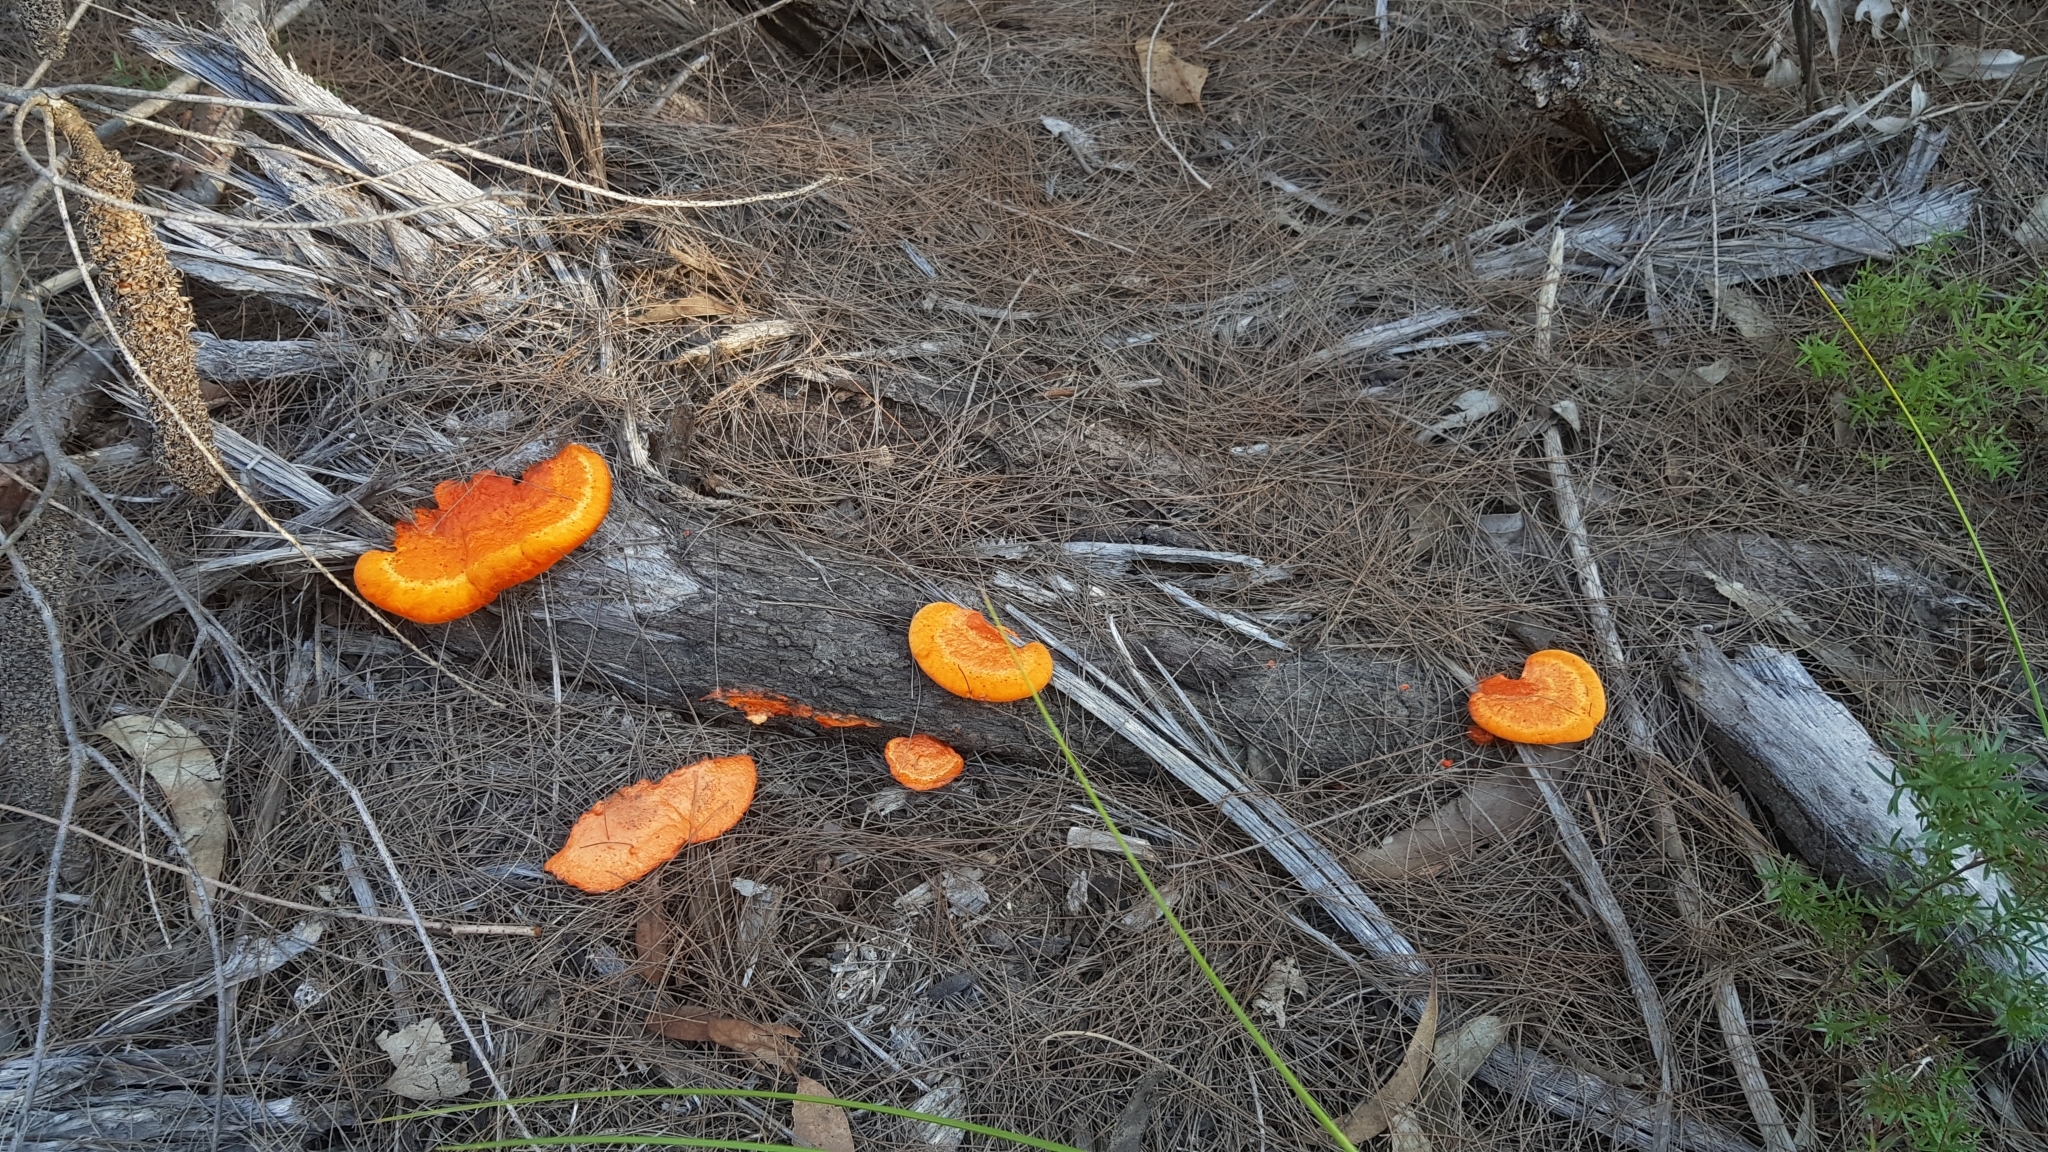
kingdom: Fungi
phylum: Basidiomycota
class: Agaricomycetes
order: Polyporales
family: Polyporaceae
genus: Trametes
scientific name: Trametes coccinea
